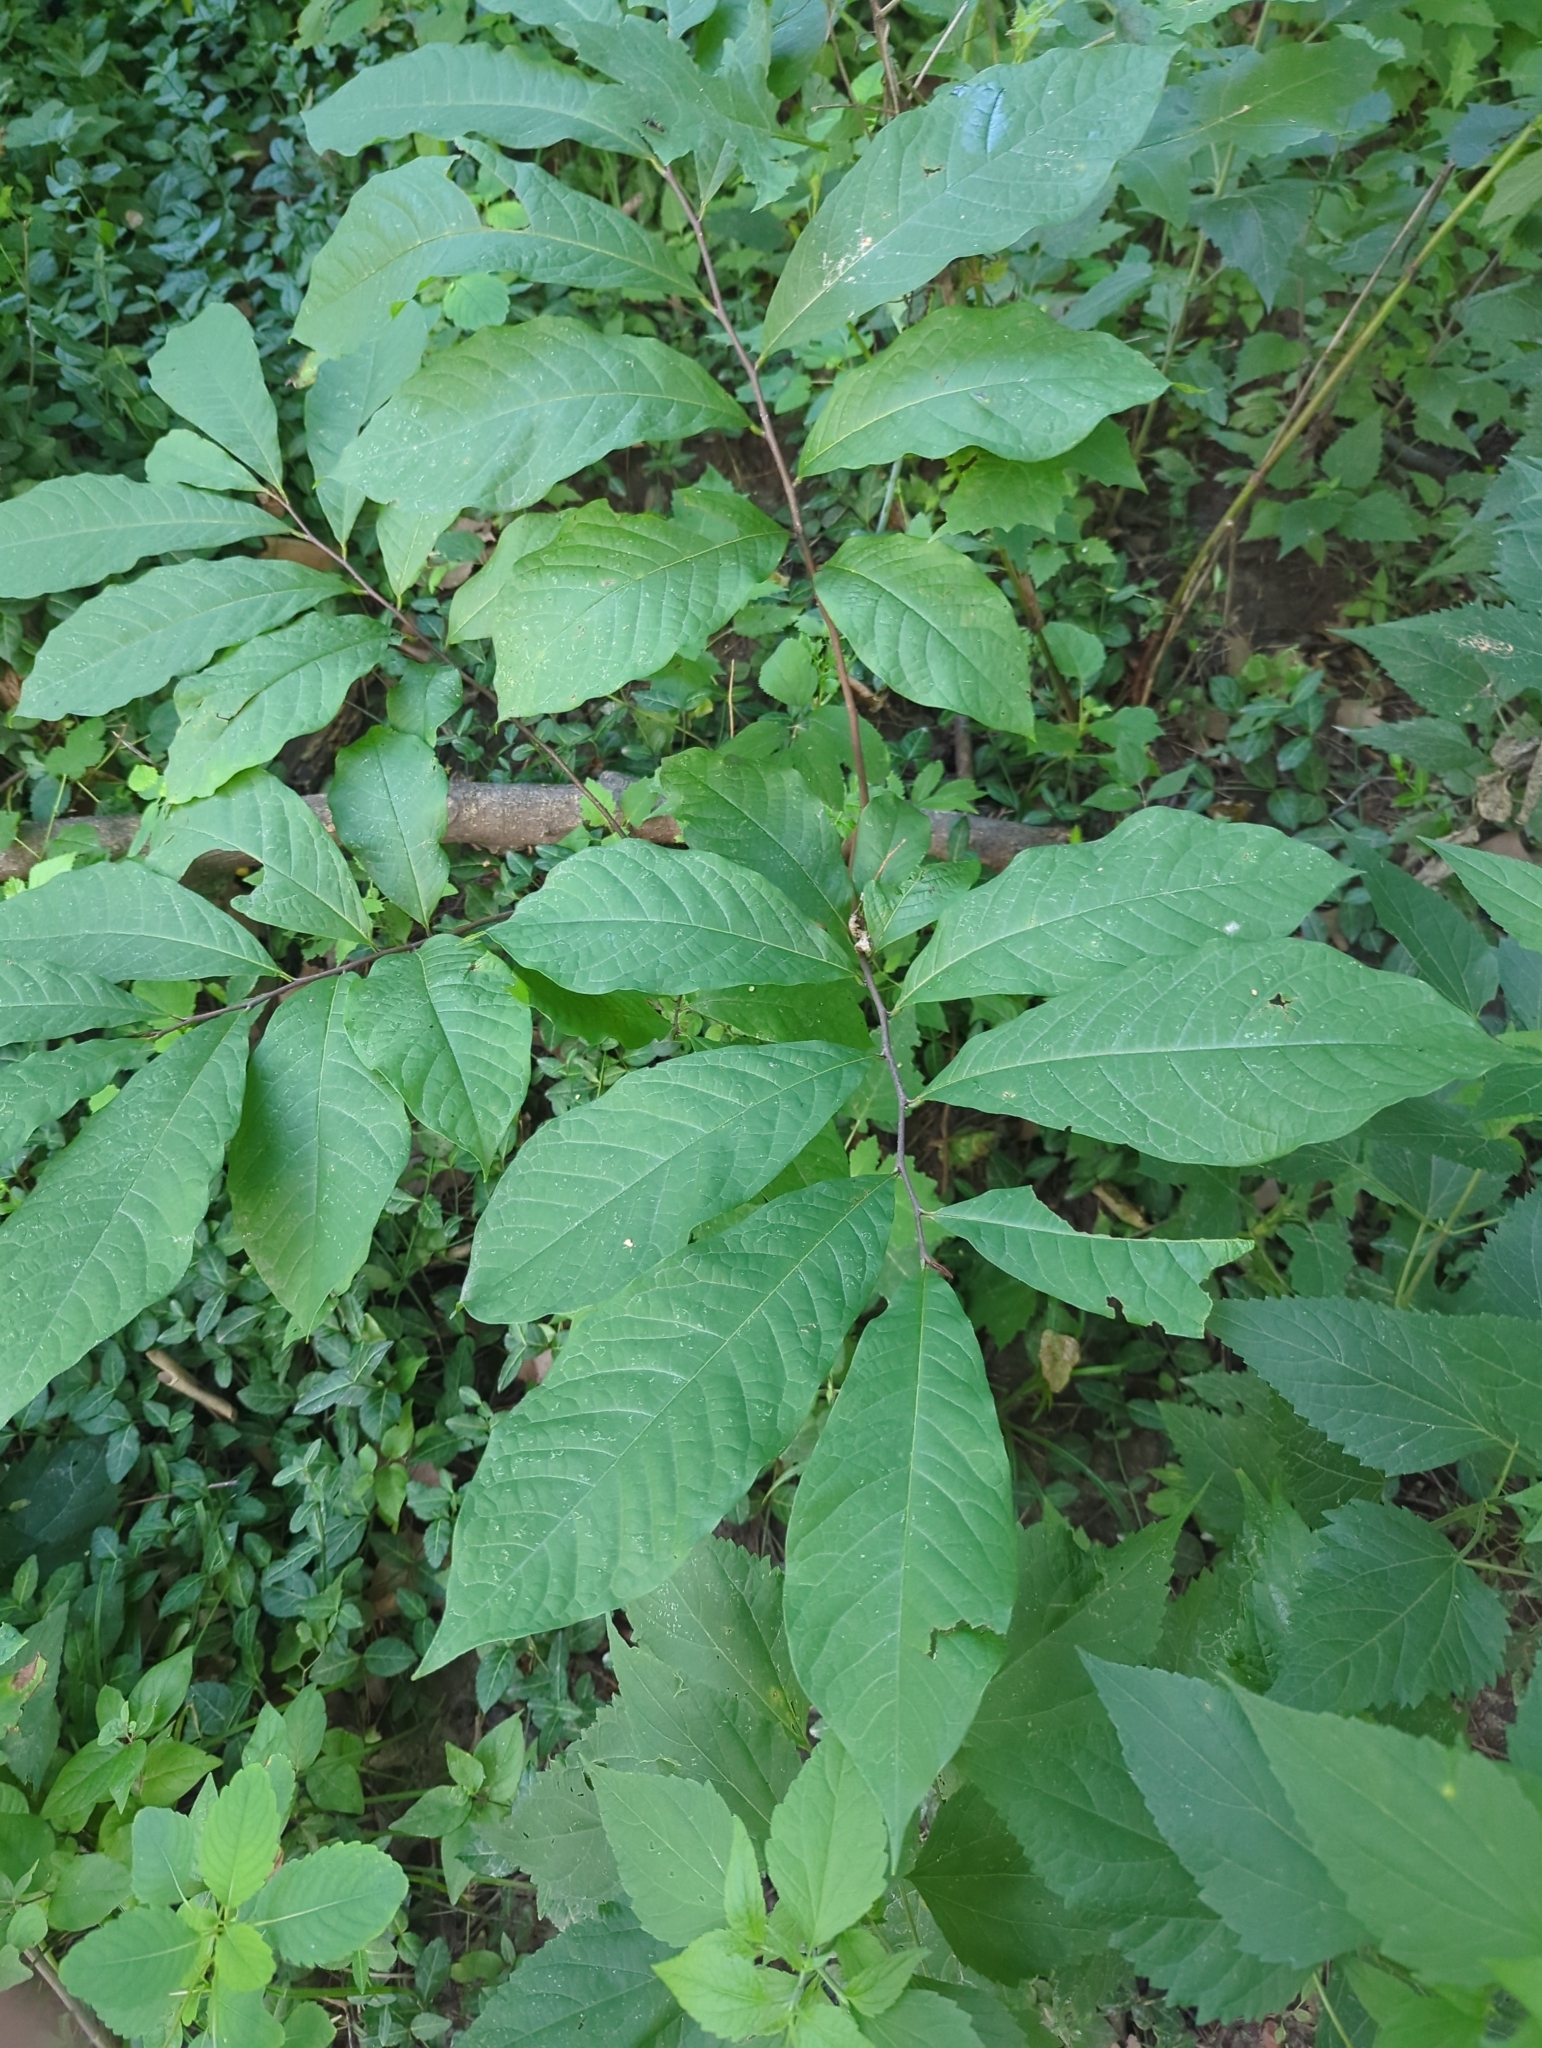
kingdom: Plantae
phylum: Tracheophyta
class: Magnoliopsida
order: Magnoliales
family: Annonaceae
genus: Asimina
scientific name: Asimina triloba
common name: Dog-banana
